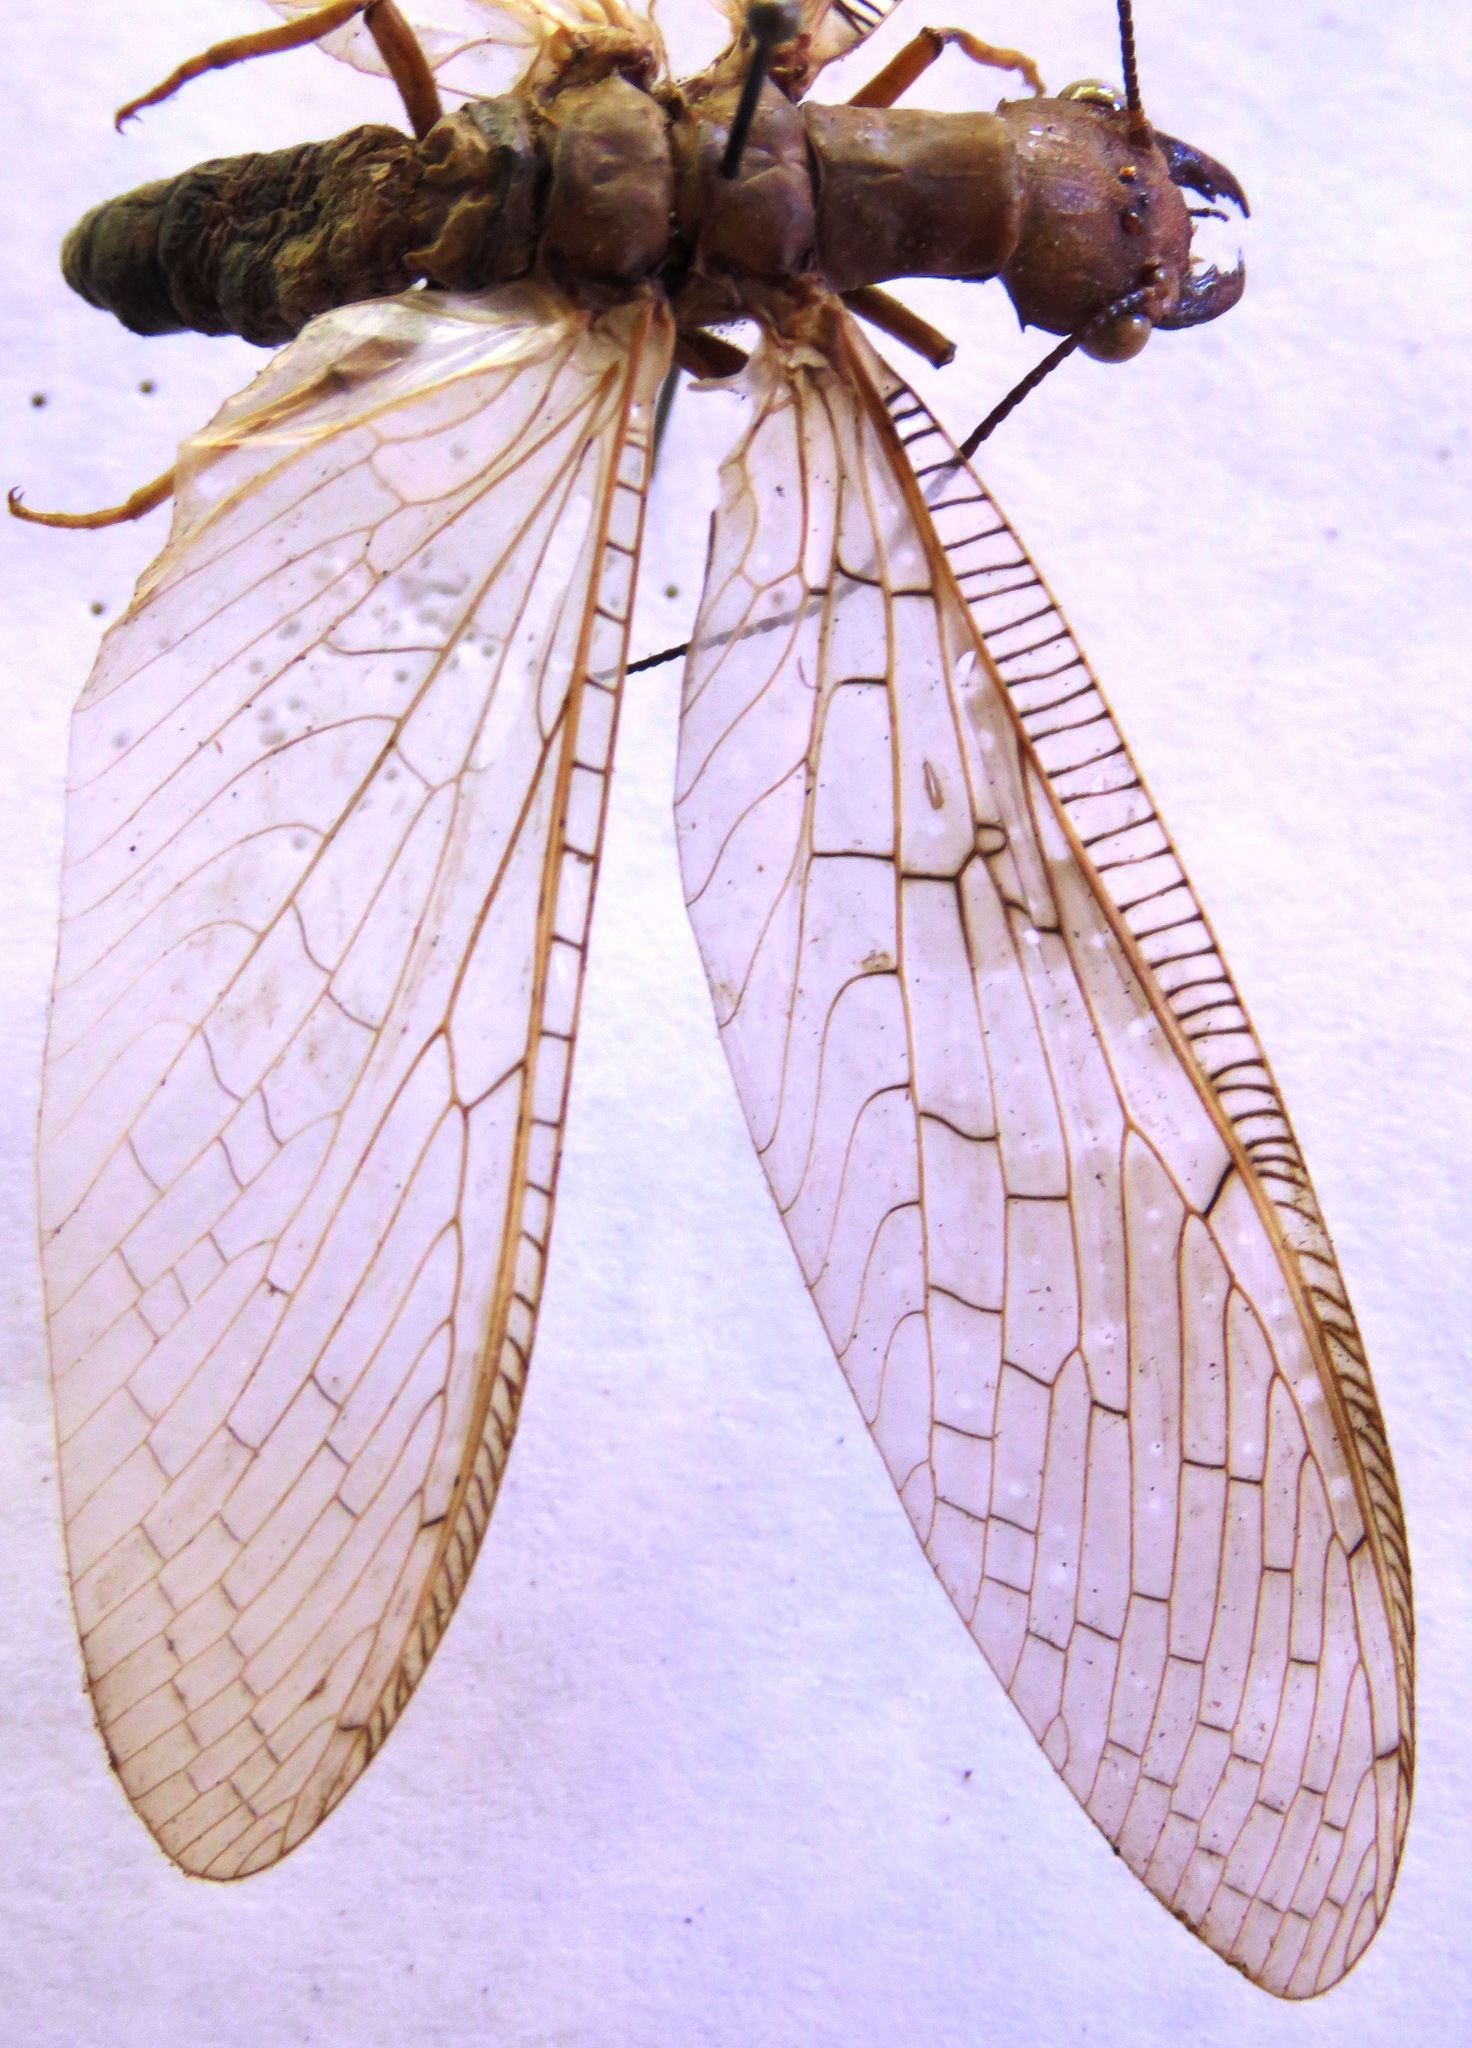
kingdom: Animalia
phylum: Arthropoda
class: Insecta
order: Megaloptera
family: Corydalidae
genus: Corydalus
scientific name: Corydalus flavicornis
